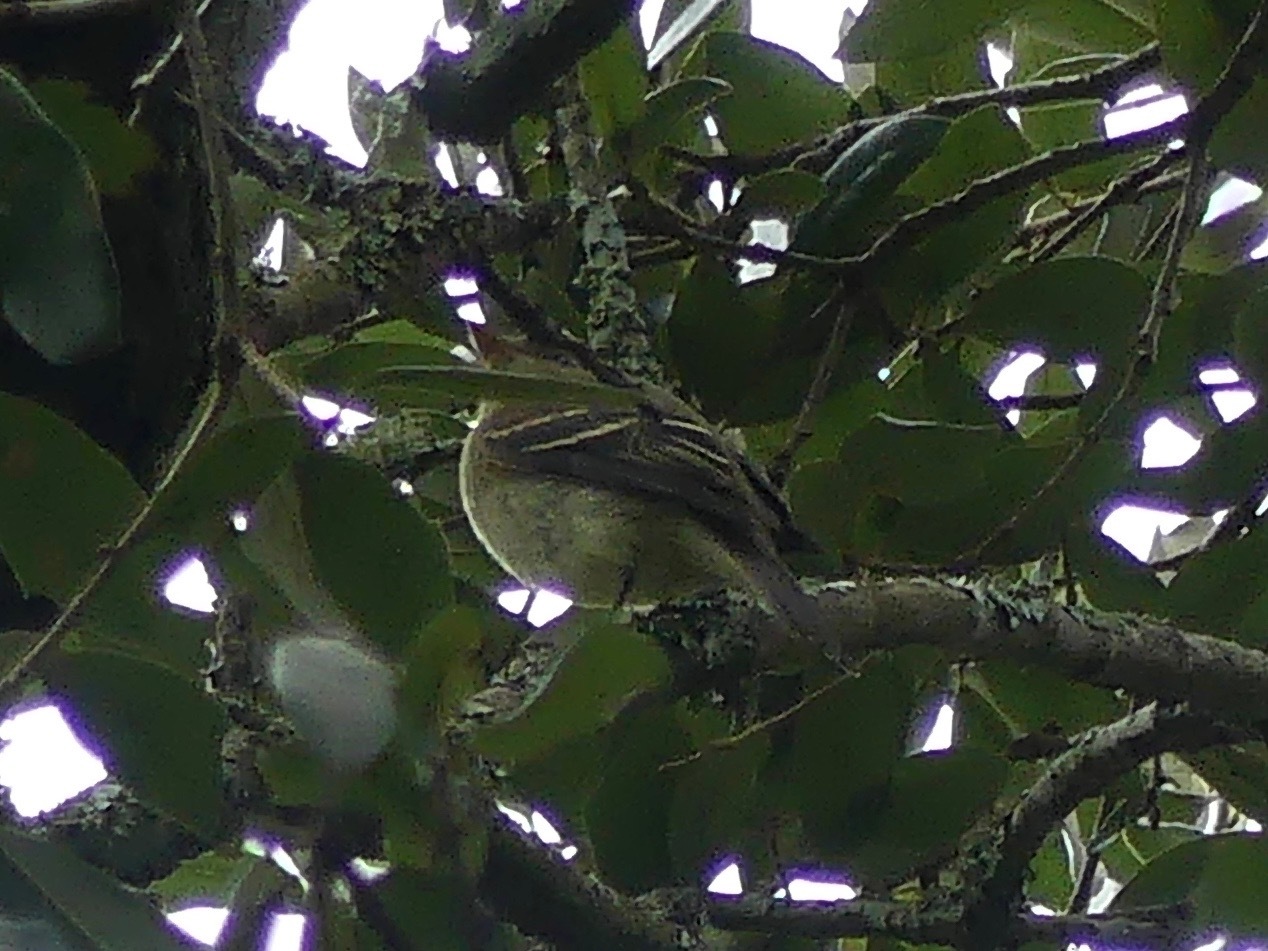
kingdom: Animalia
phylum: Chordata
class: Aves
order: Passeriformes
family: Tyrannidae
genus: Empidonax
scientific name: Empidonax flaviventris
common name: Yellow-bellied flycatcher
